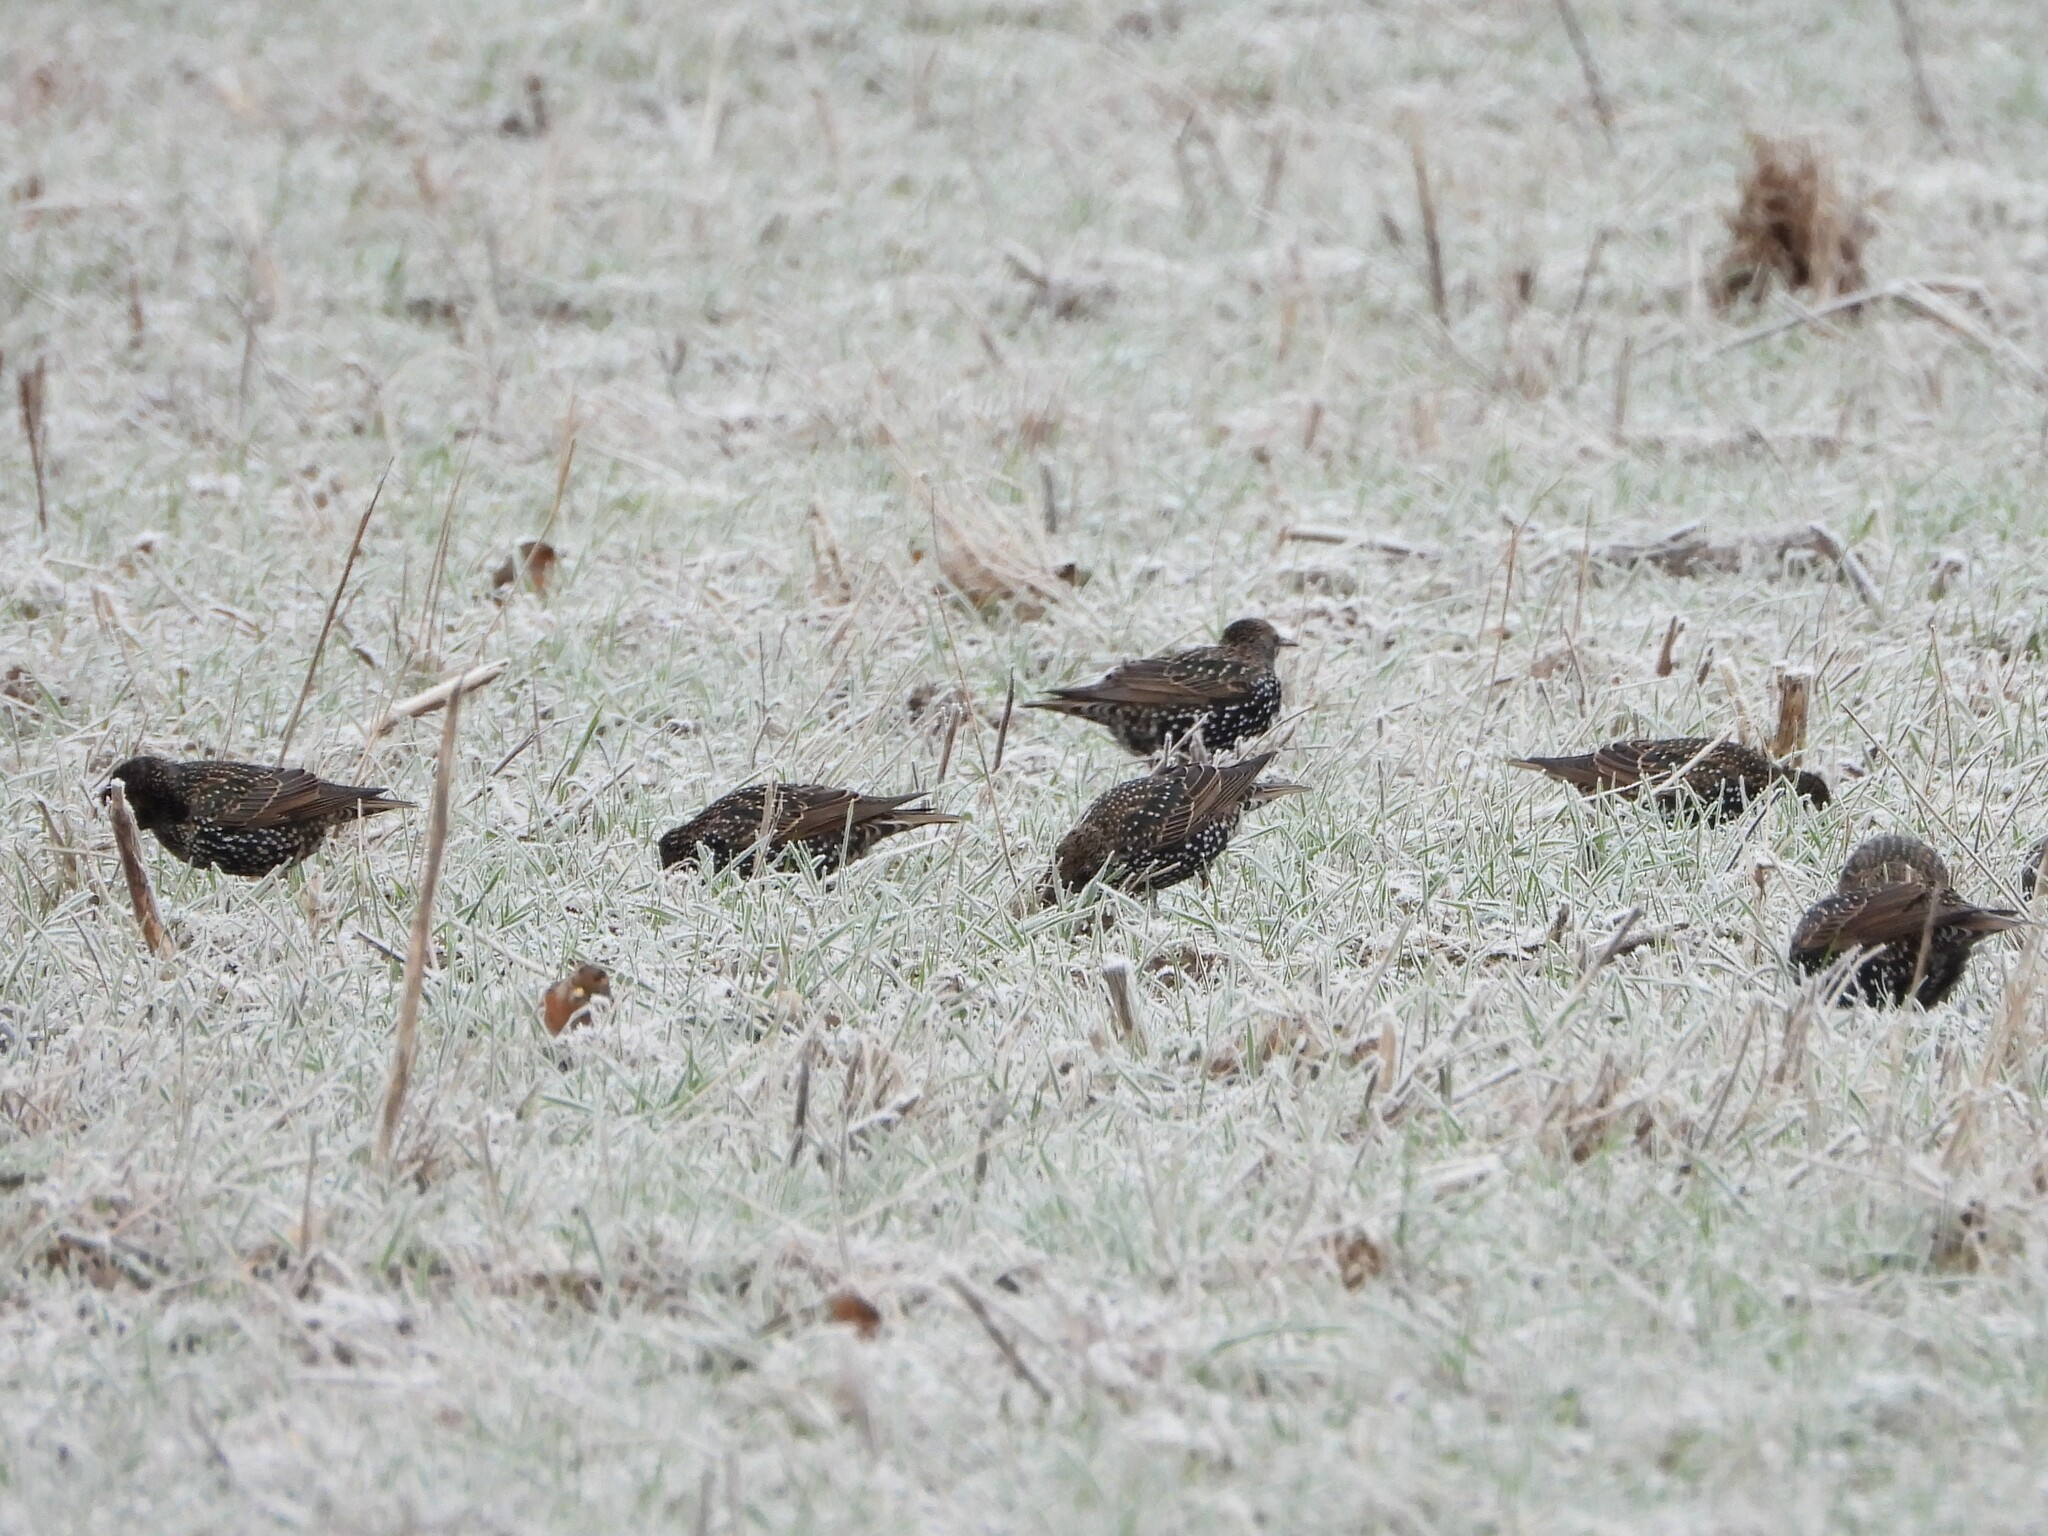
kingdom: Animalia
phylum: Chordata
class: Aves
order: Passeriformes
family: Sturnidae
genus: Sturnus
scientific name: Sturnus vulgaris
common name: Common starling
